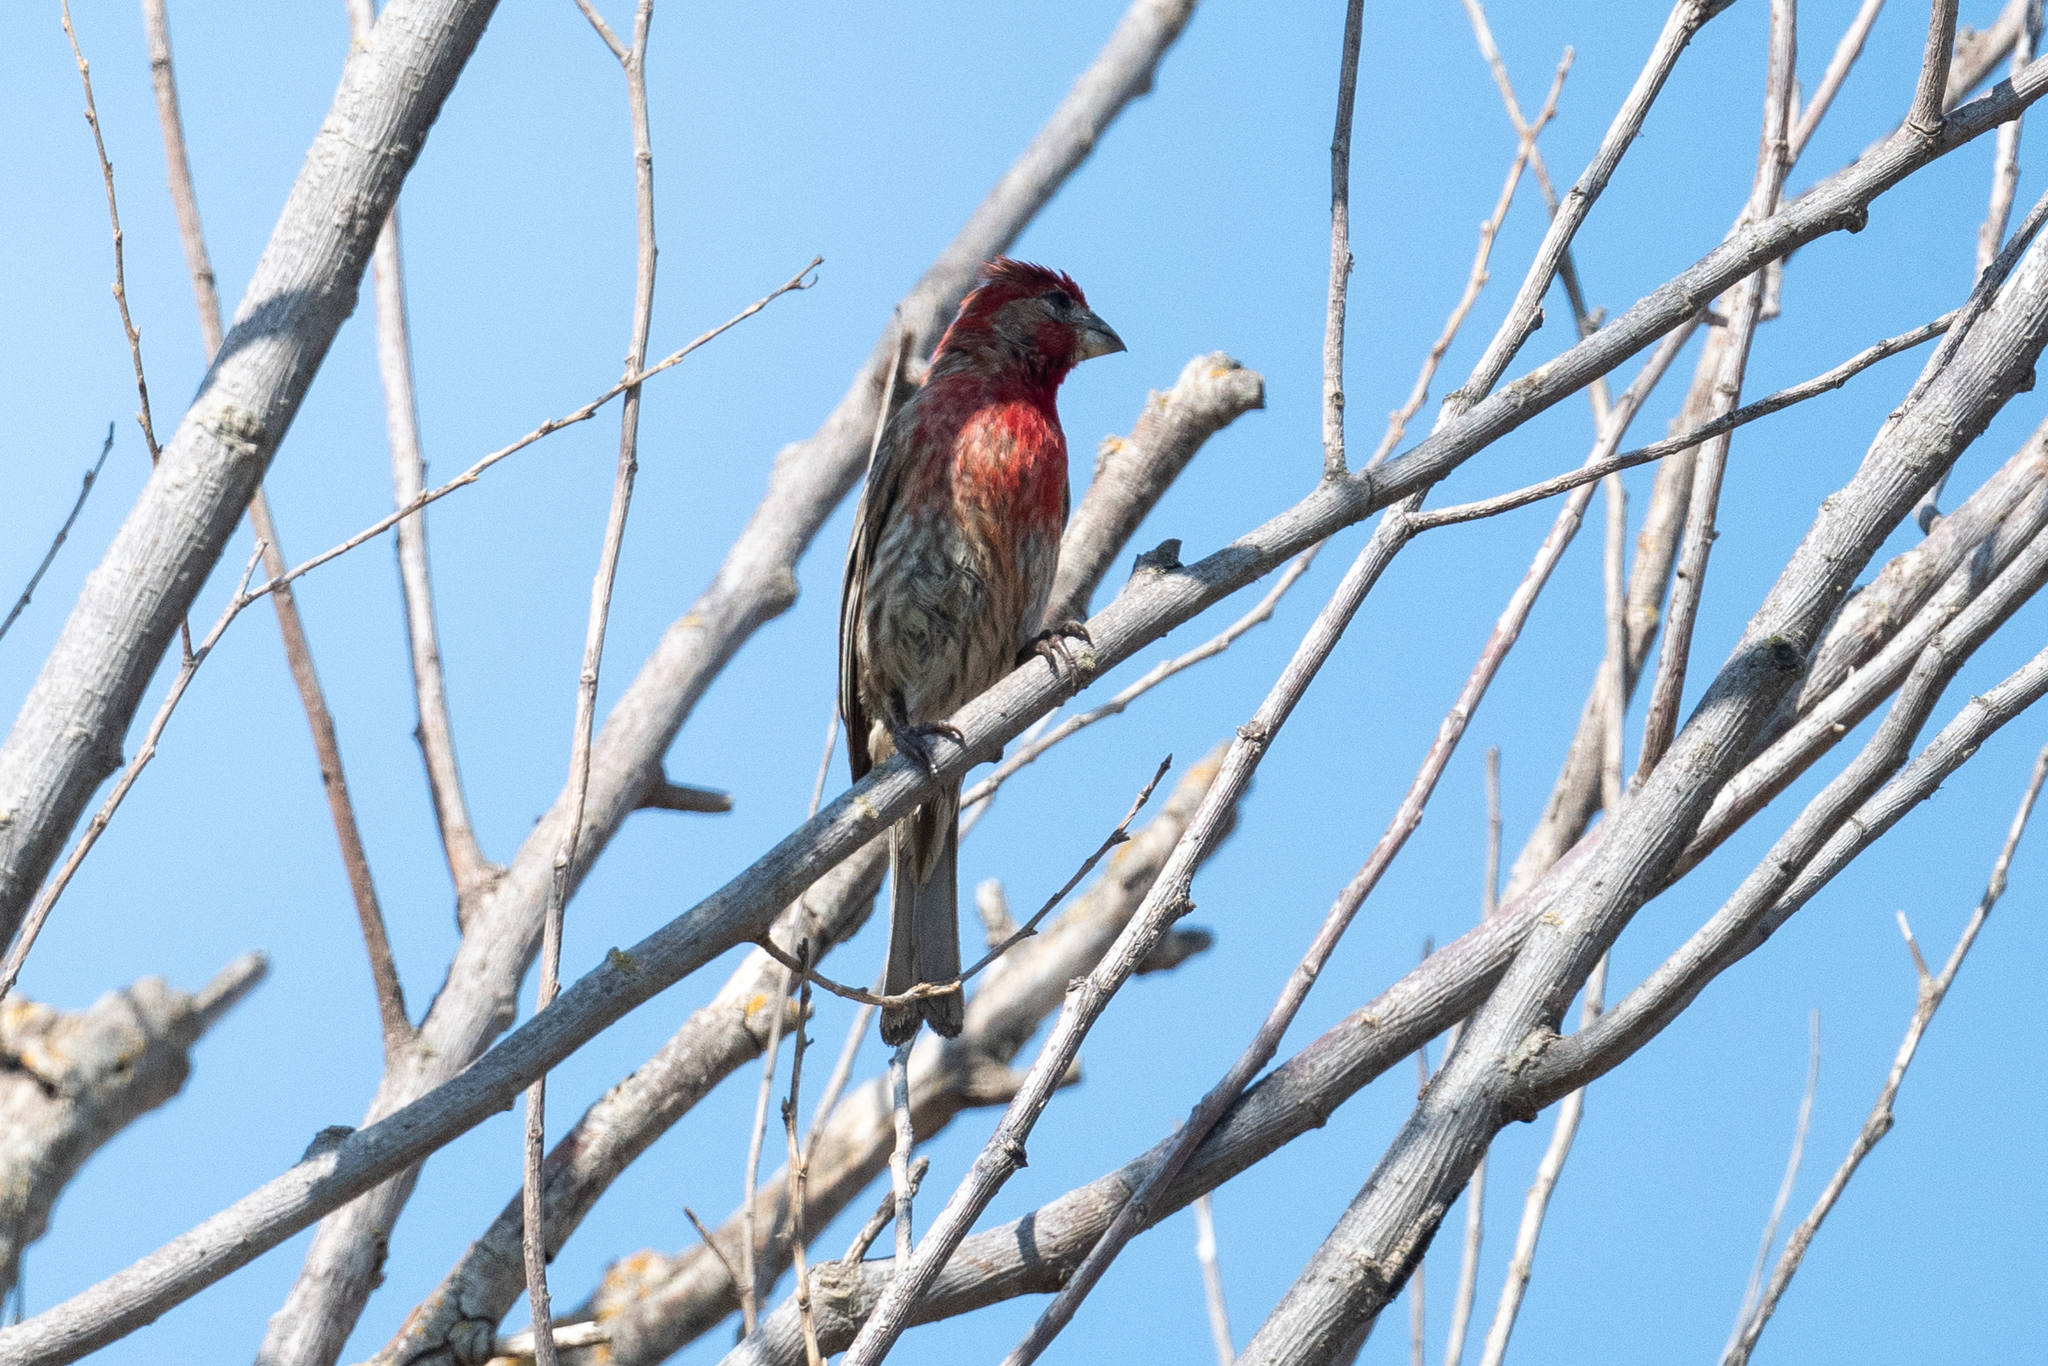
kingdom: Animalia
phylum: Chordata
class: Aves
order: Passeriformes
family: Fringillidae
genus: Haemorhous
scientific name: Haemorhous mexicanus
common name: House finch
